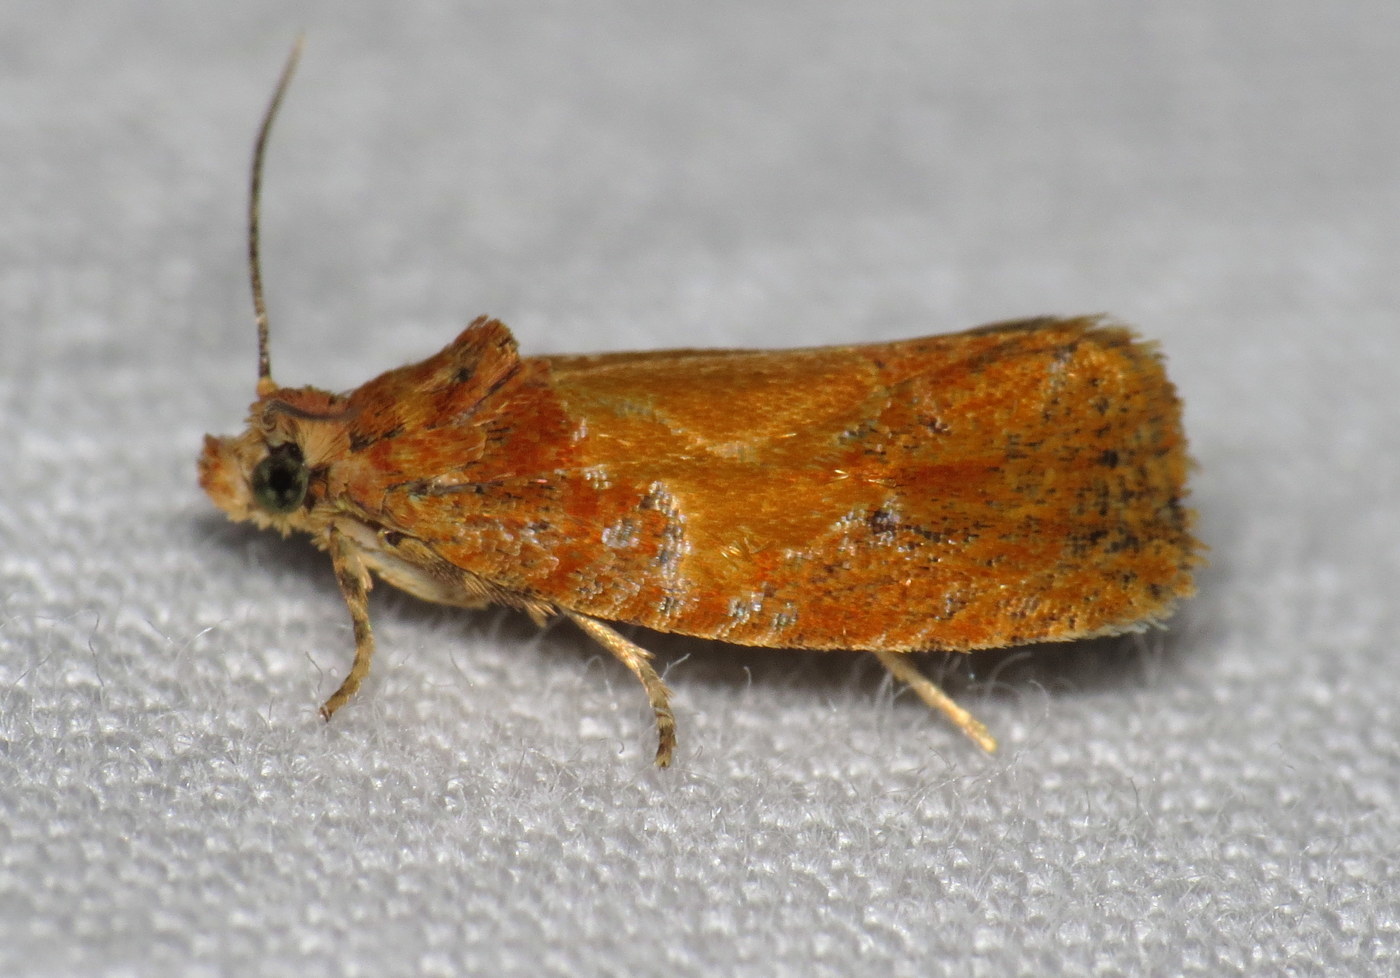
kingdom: Animalia
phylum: Arthropoda
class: Insecta
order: Lepidoptera
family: Tortricidae
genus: Olethreutes
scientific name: Olethreutes osmundana
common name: Fern olethreutes moth
